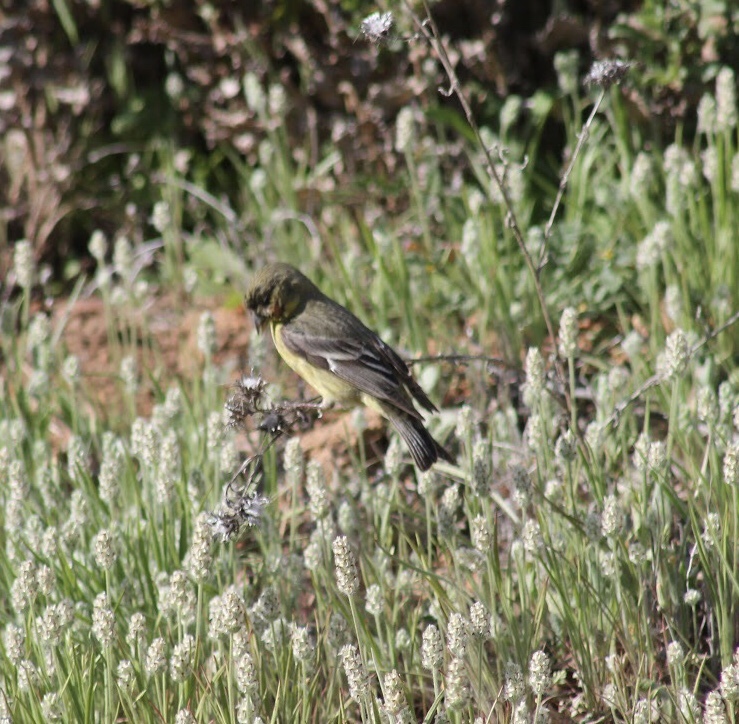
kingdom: Animalia
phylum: Chordata
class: Aves
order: Passeriformes
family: Fringillidae
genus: Spinus
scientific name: Spinus psaltria
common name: Lesser goldfinch
